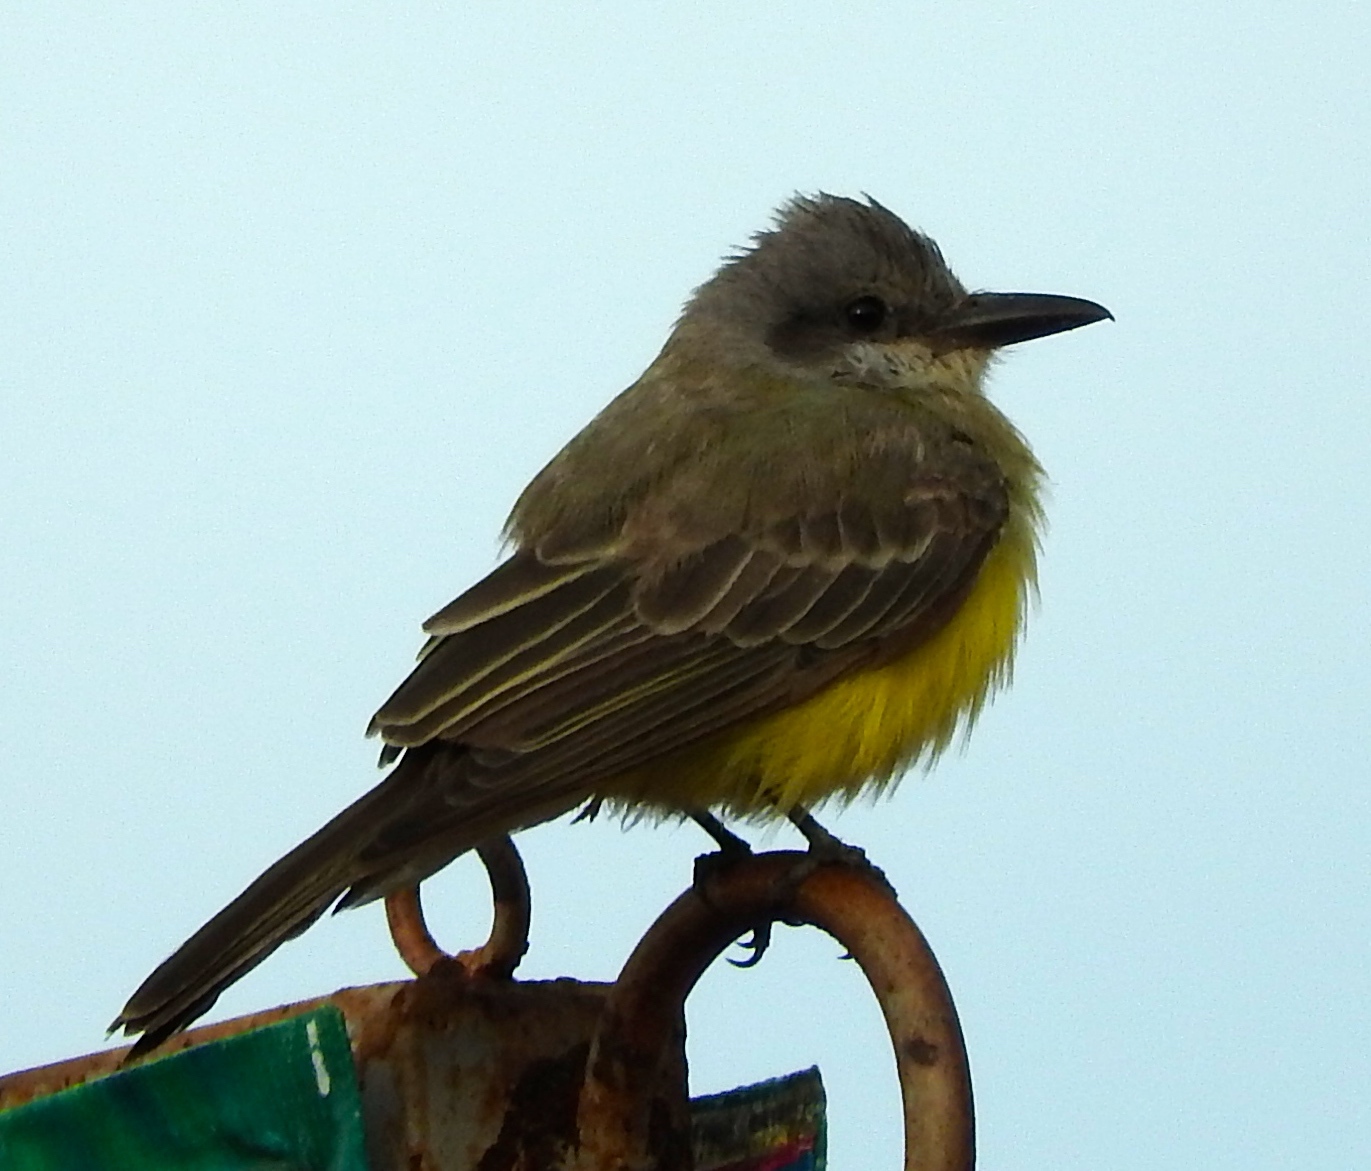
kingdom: Animalia
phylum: Chordata
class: Aves
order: Passeriformes
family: Tyrannidae
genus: Tyrannus
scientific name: Tyrannus melancholicus
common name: Tropical kingbird
